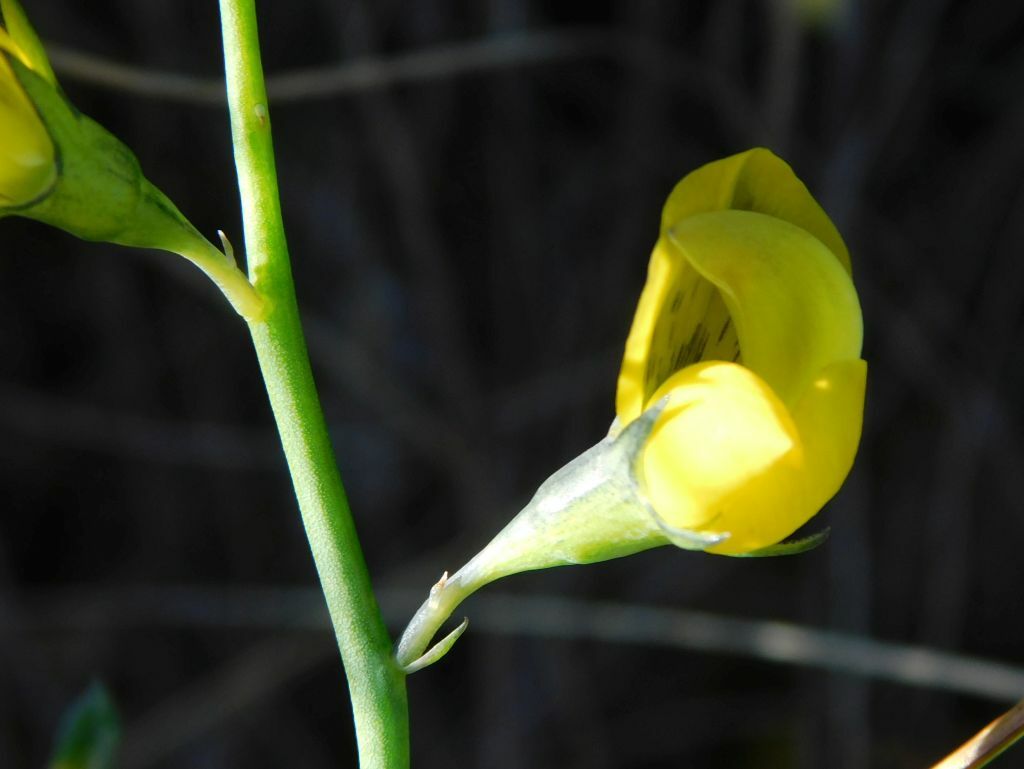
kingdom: Plantae
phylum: Tracheophyta
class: Magnoliopsida
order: Fabales
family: Fabaceae
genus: Lebeckia
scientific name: Lebeckia pauciflora
